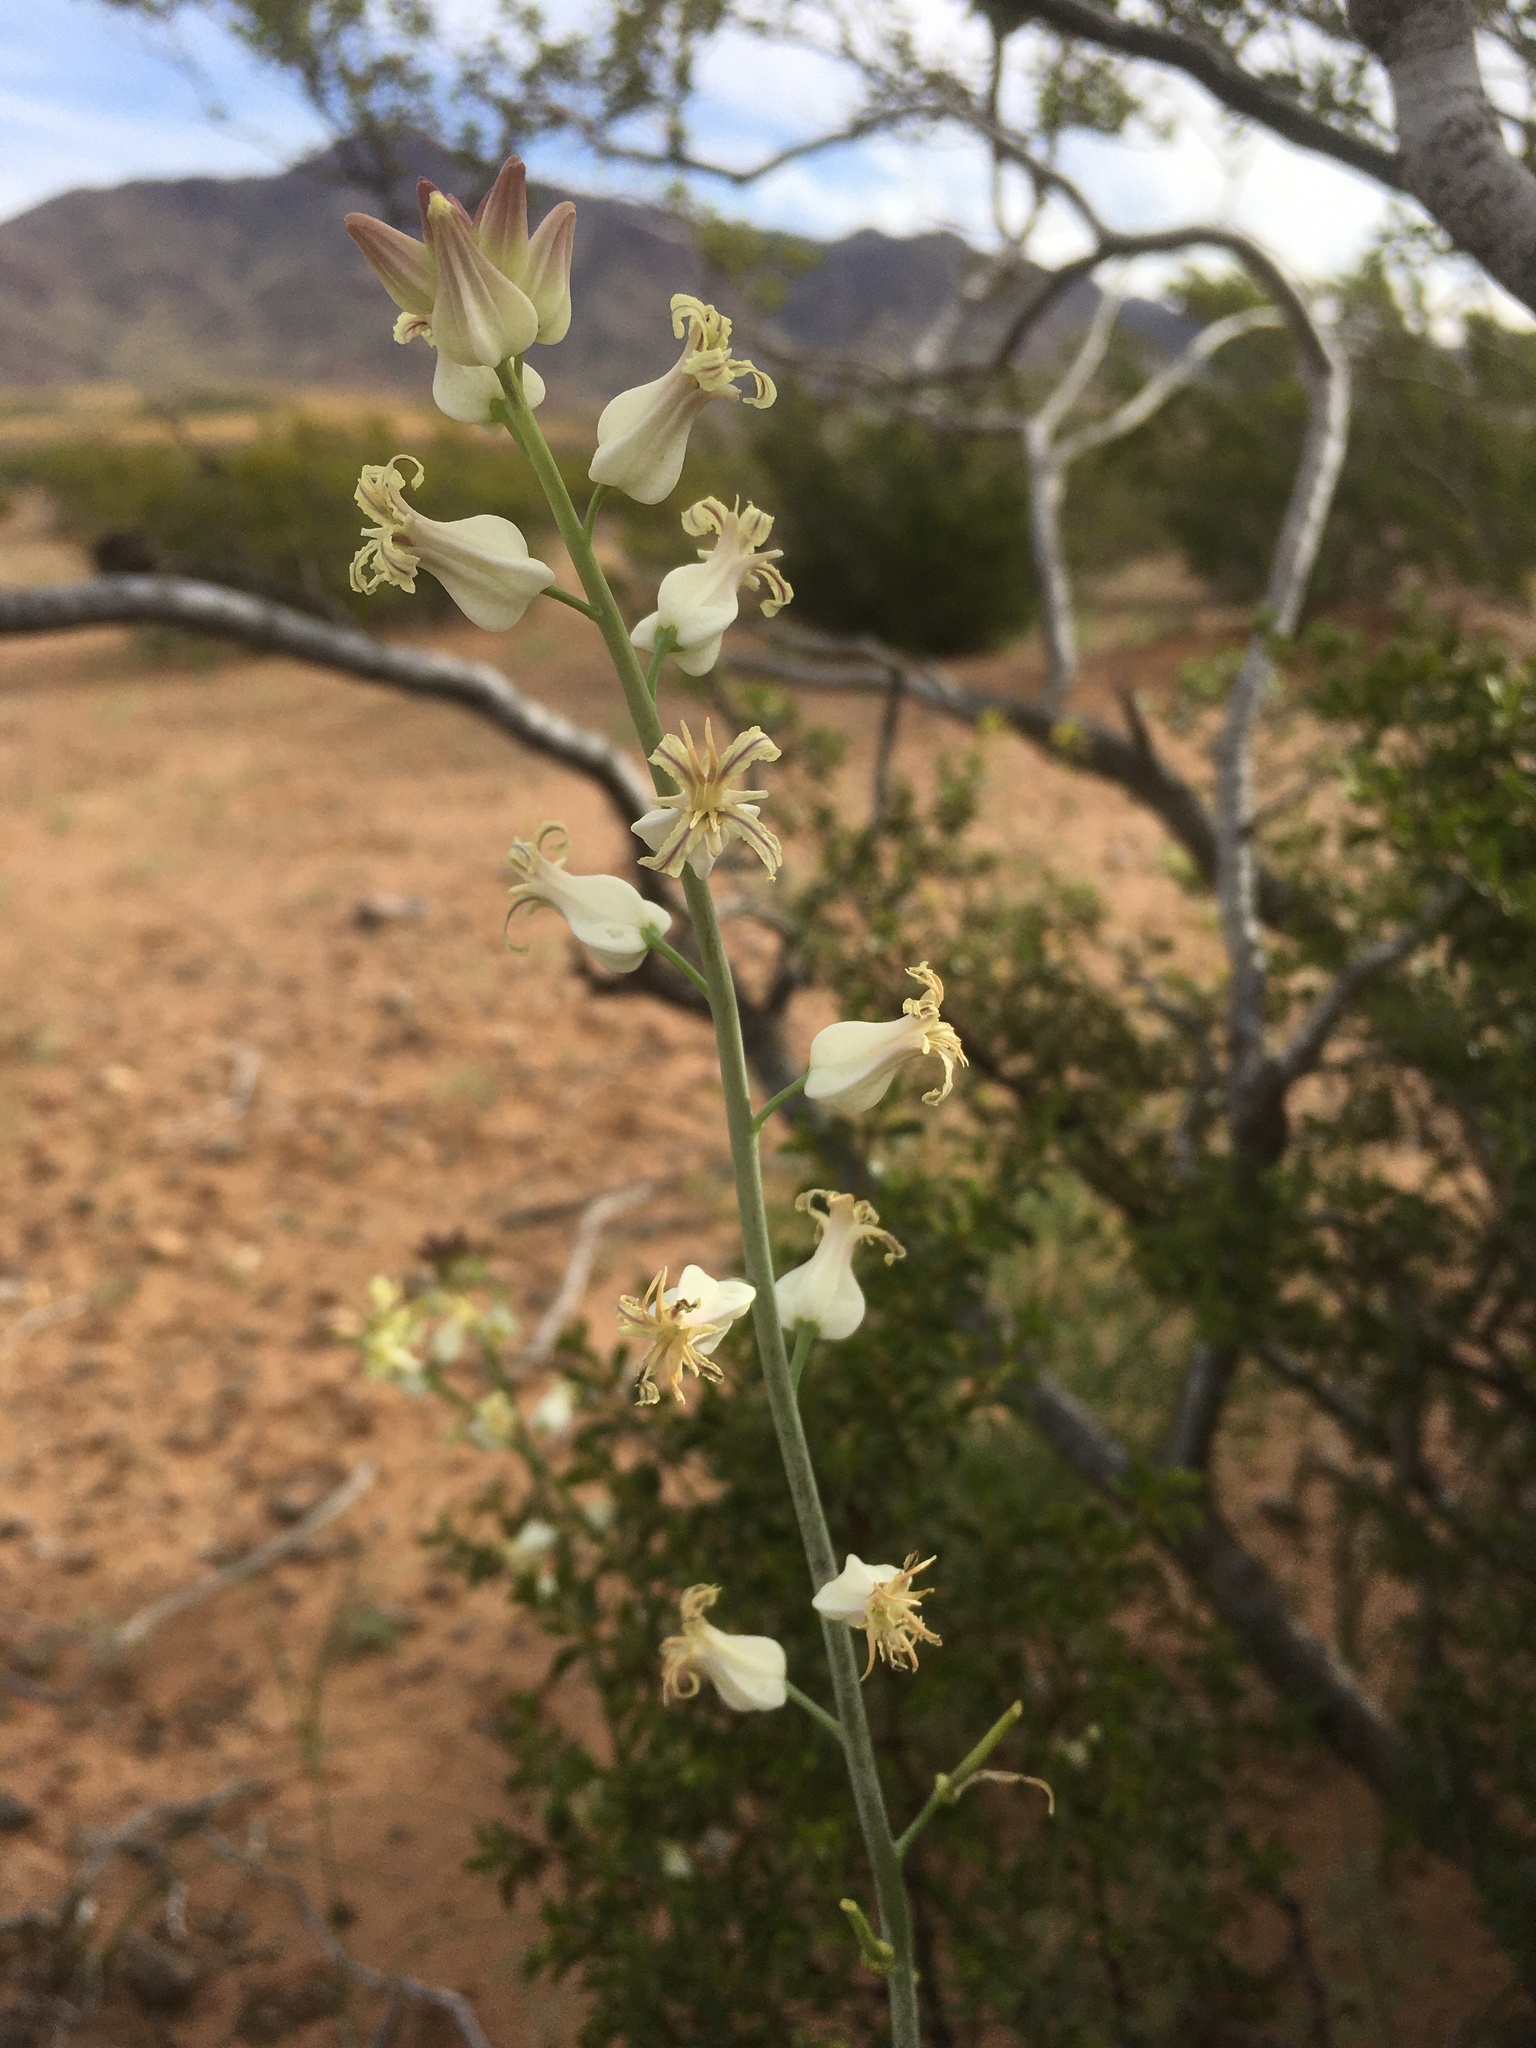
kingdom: Plantae
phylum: Tracheophyta
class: Magnoliopsida
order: Brassicales
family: Brassicaceae
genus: Streptanthus
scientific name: Streptanthus carinatus
